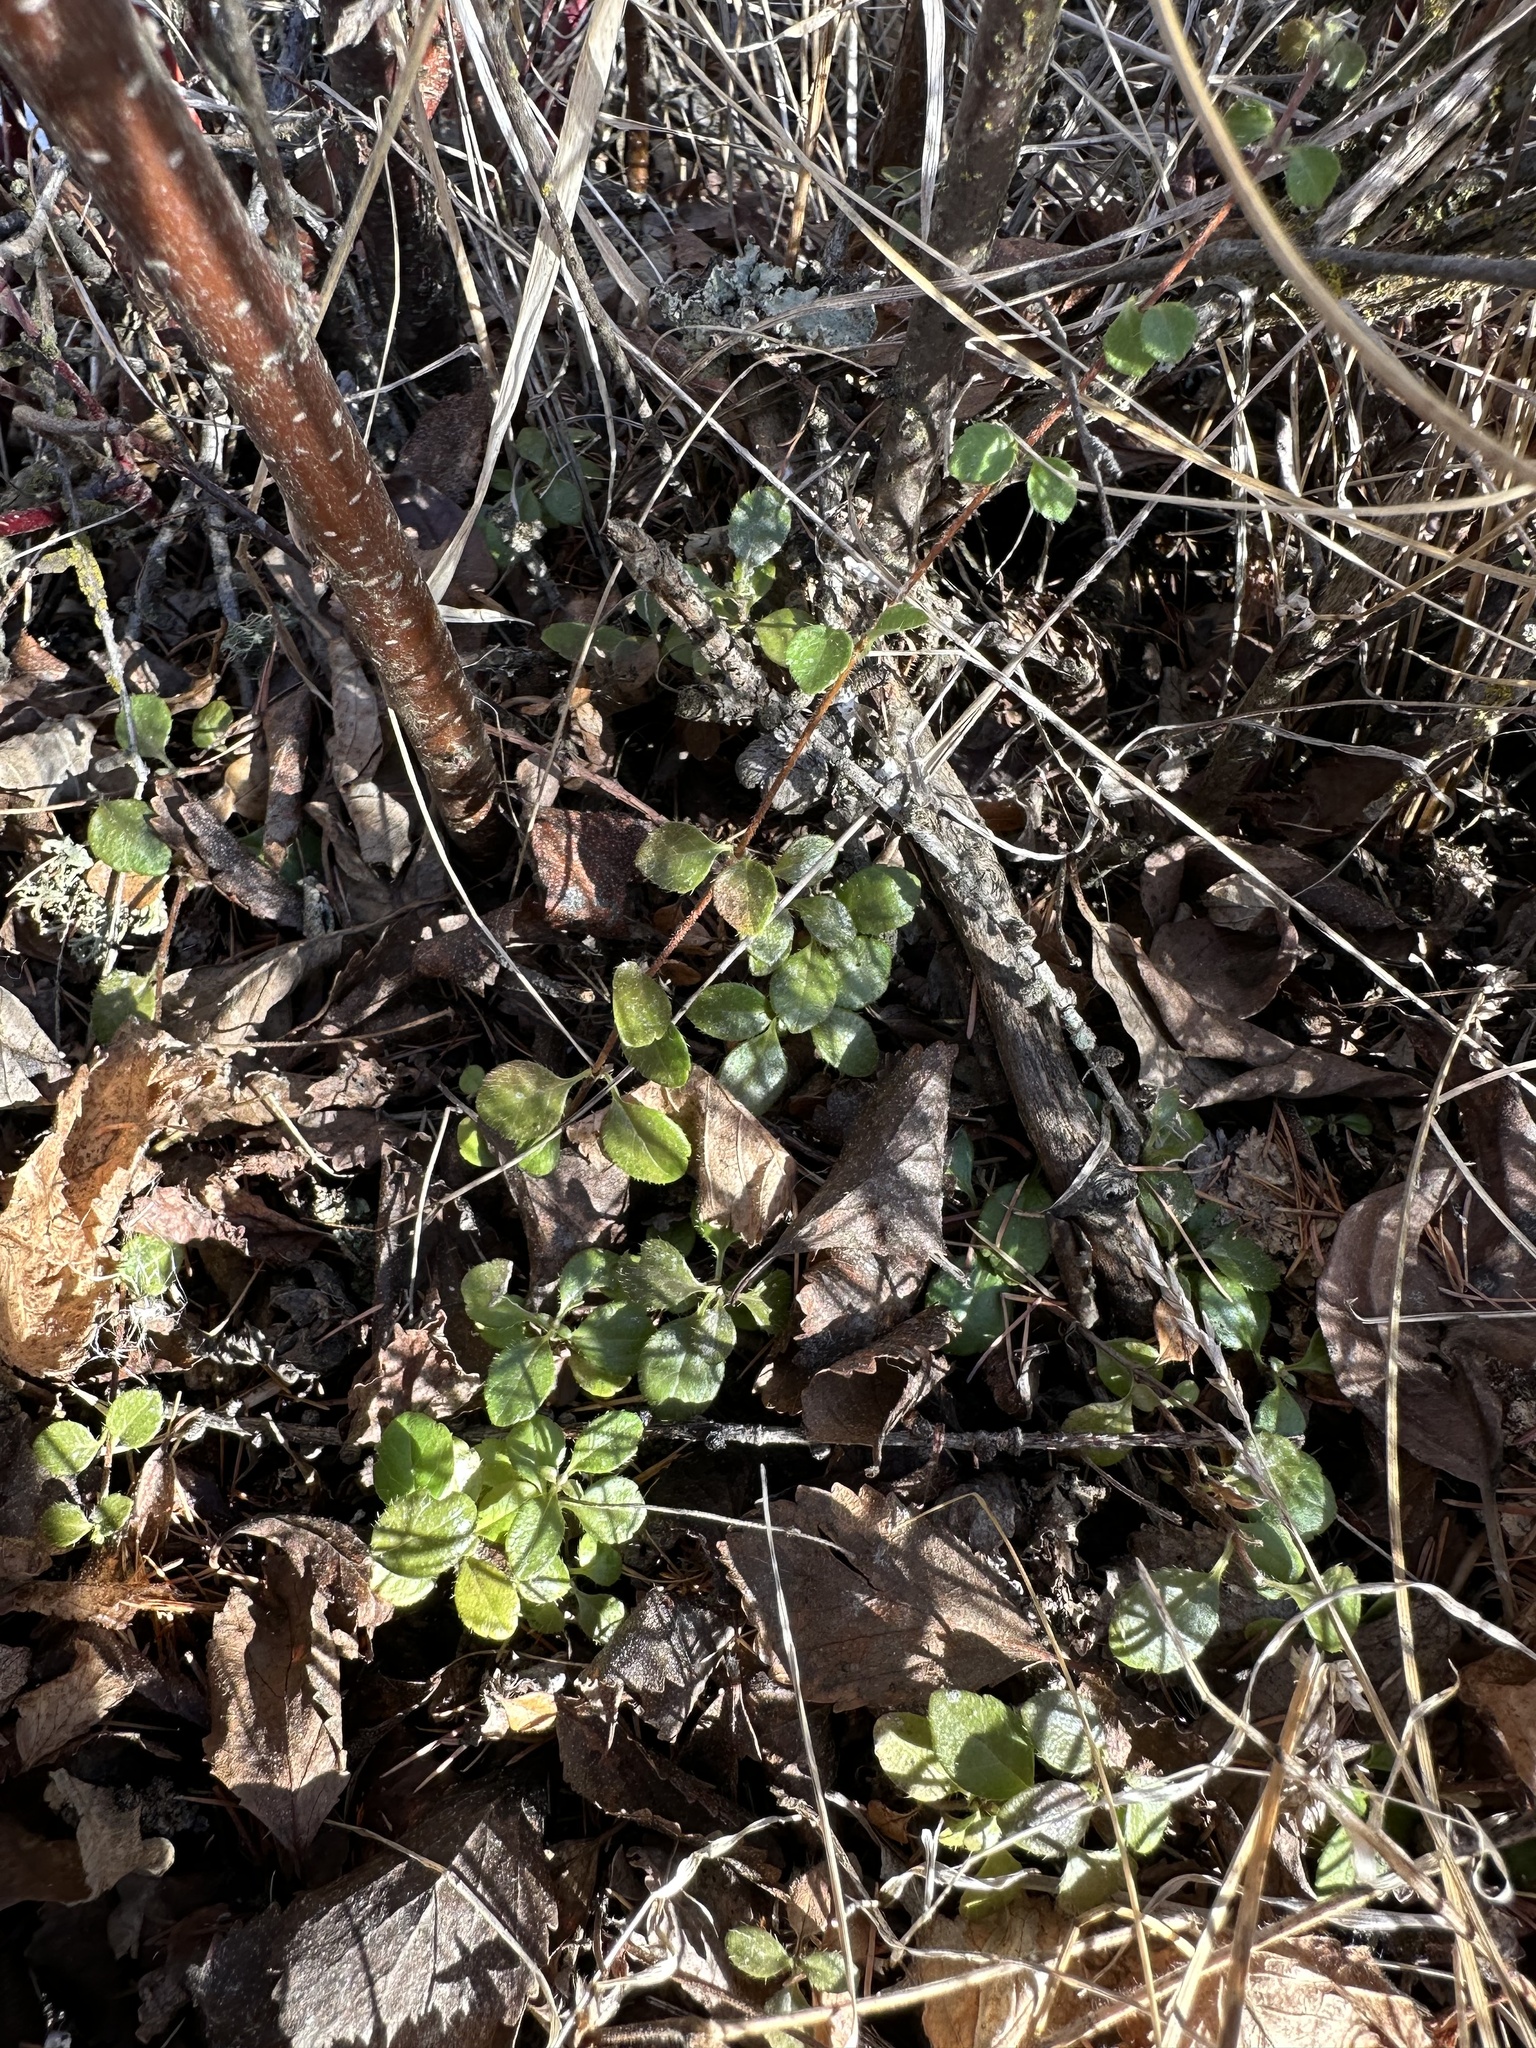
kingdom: Plantae
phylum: Tracheophyta
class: Magnoliopsida
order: Dipsacales
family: Caprifoliaceae
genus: Linnaea
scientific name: Linnaea borealis
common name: Twinflower
